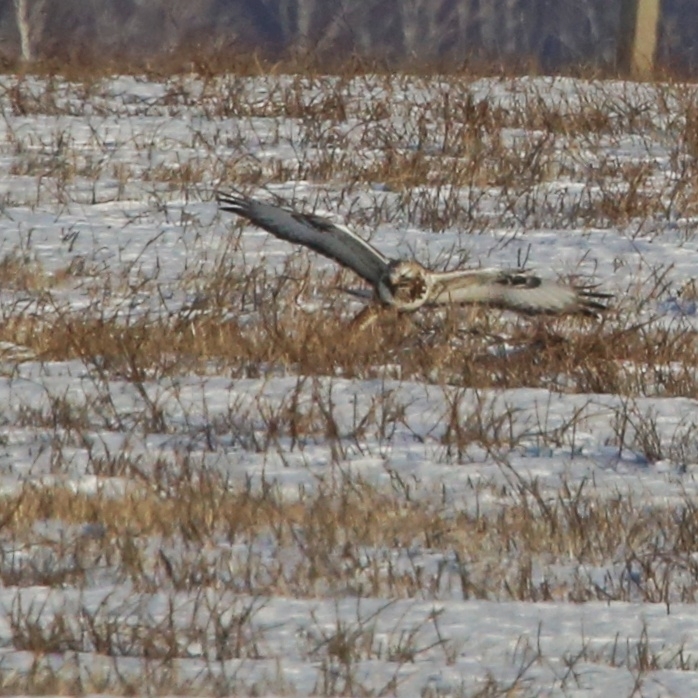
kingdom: Animalia
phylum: Chordata
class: Aves
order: Accipitriformes
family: Accipitridae
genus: Buteo
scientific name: Buteo lagopus
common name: Rough-legged buzzard
